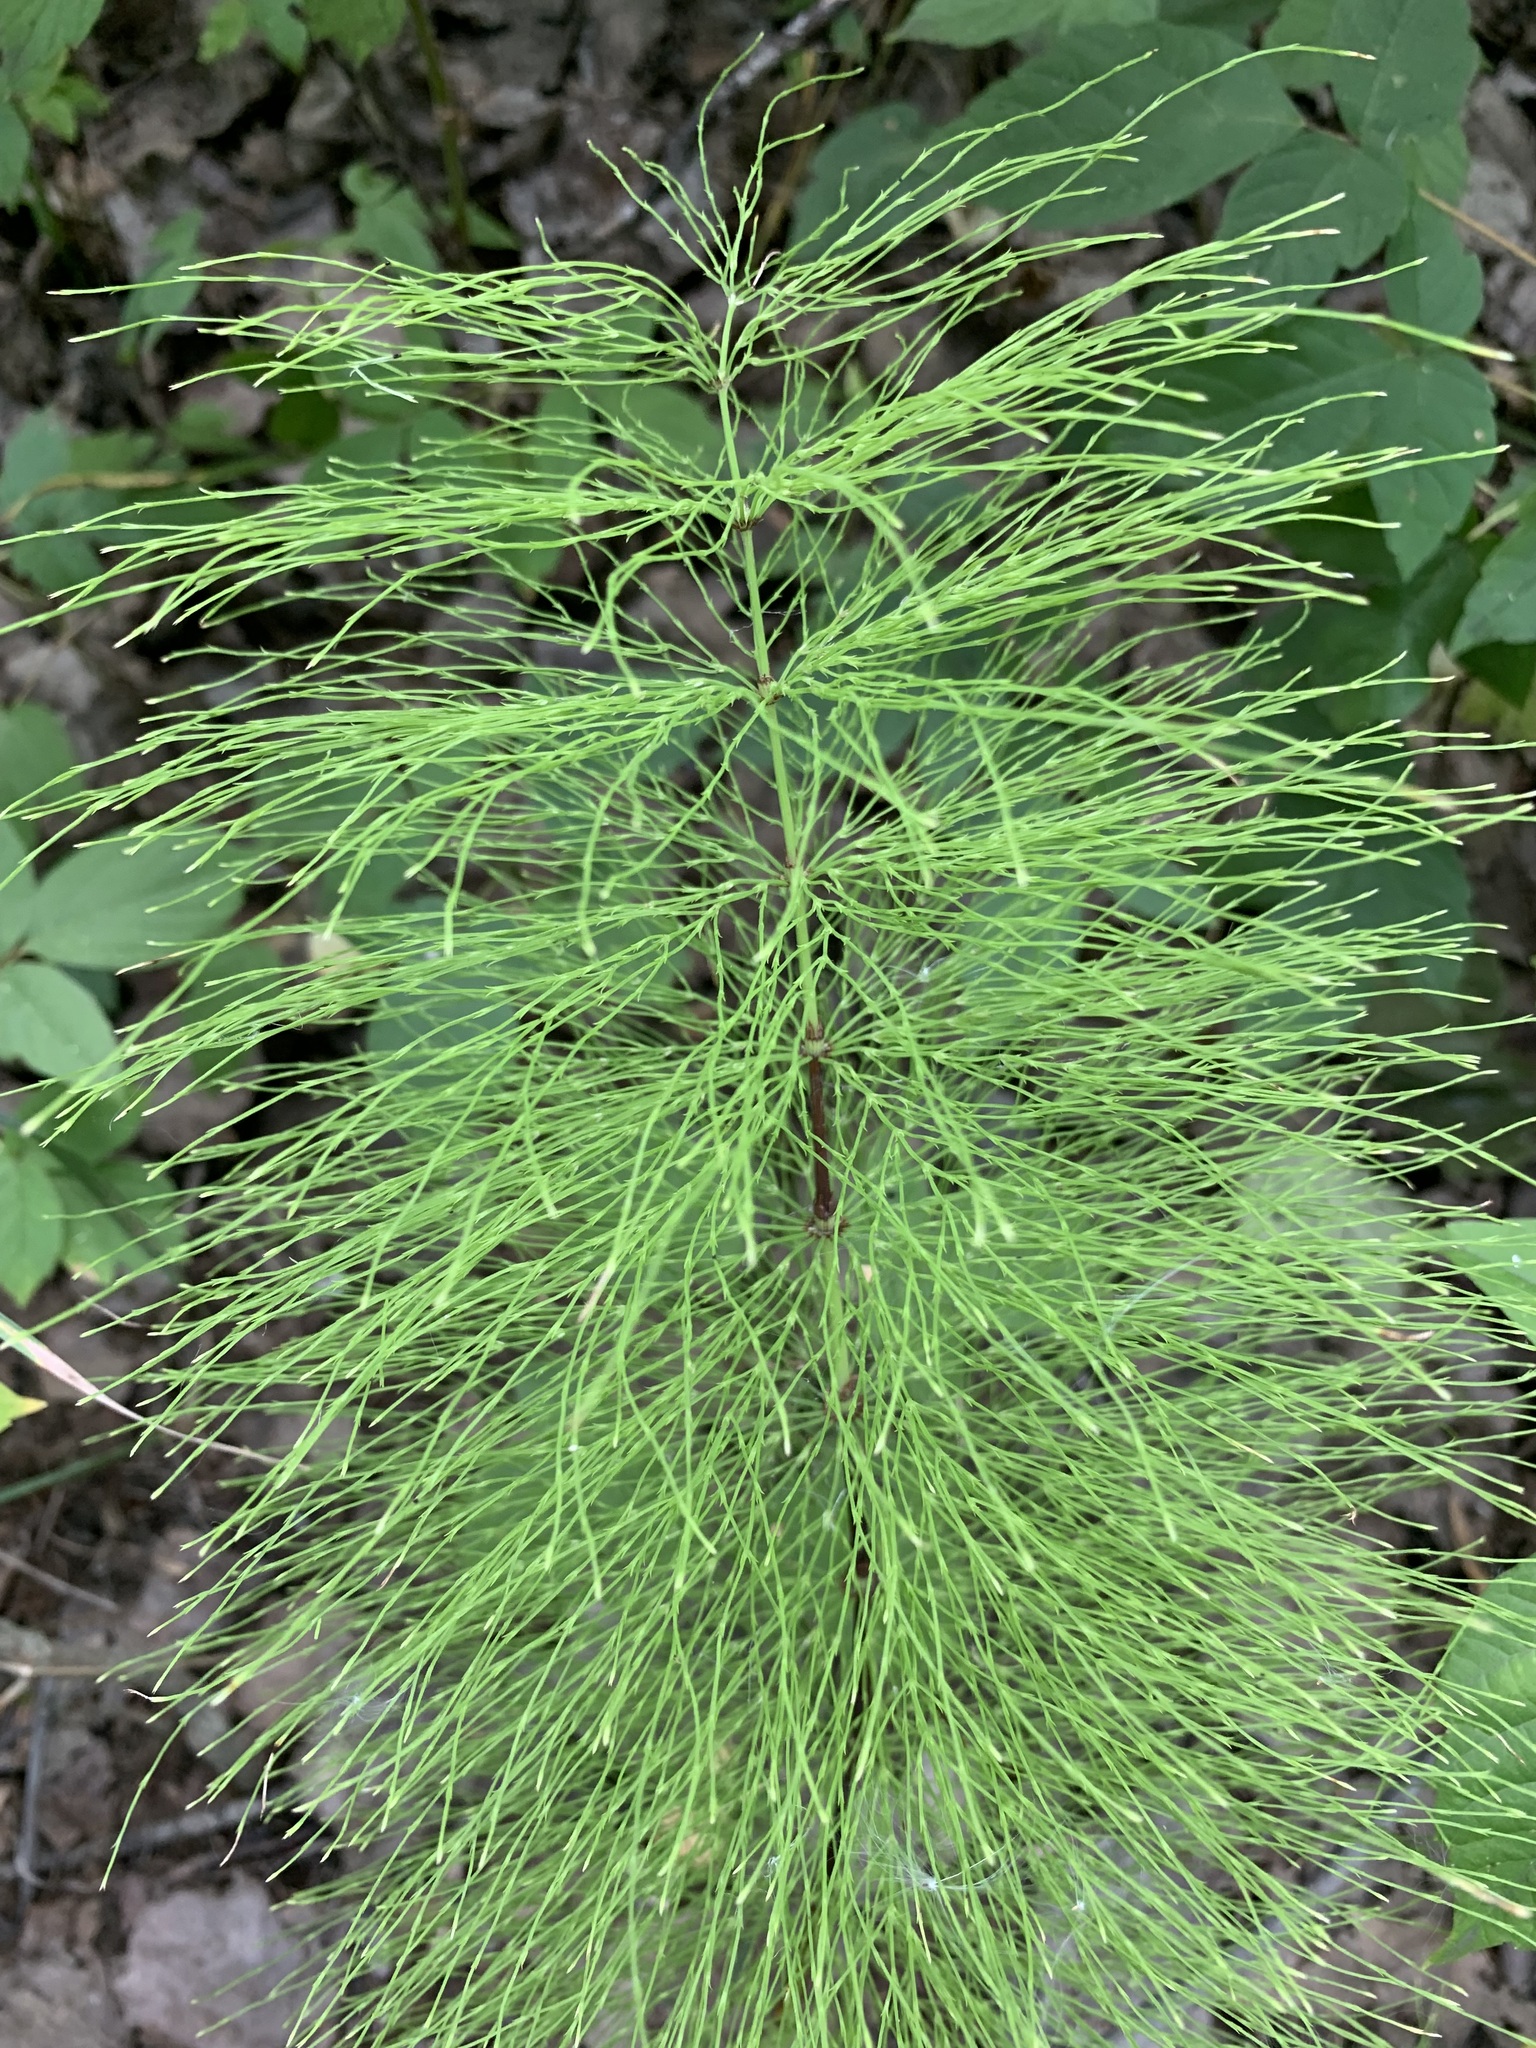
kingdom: Plantae
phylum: Tracheophyta
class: Polypodiopsida
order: Equisetales
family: Equisetaceae
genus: Equisetum
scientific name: Equisetum sylvaticum
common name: Wood horsetail
